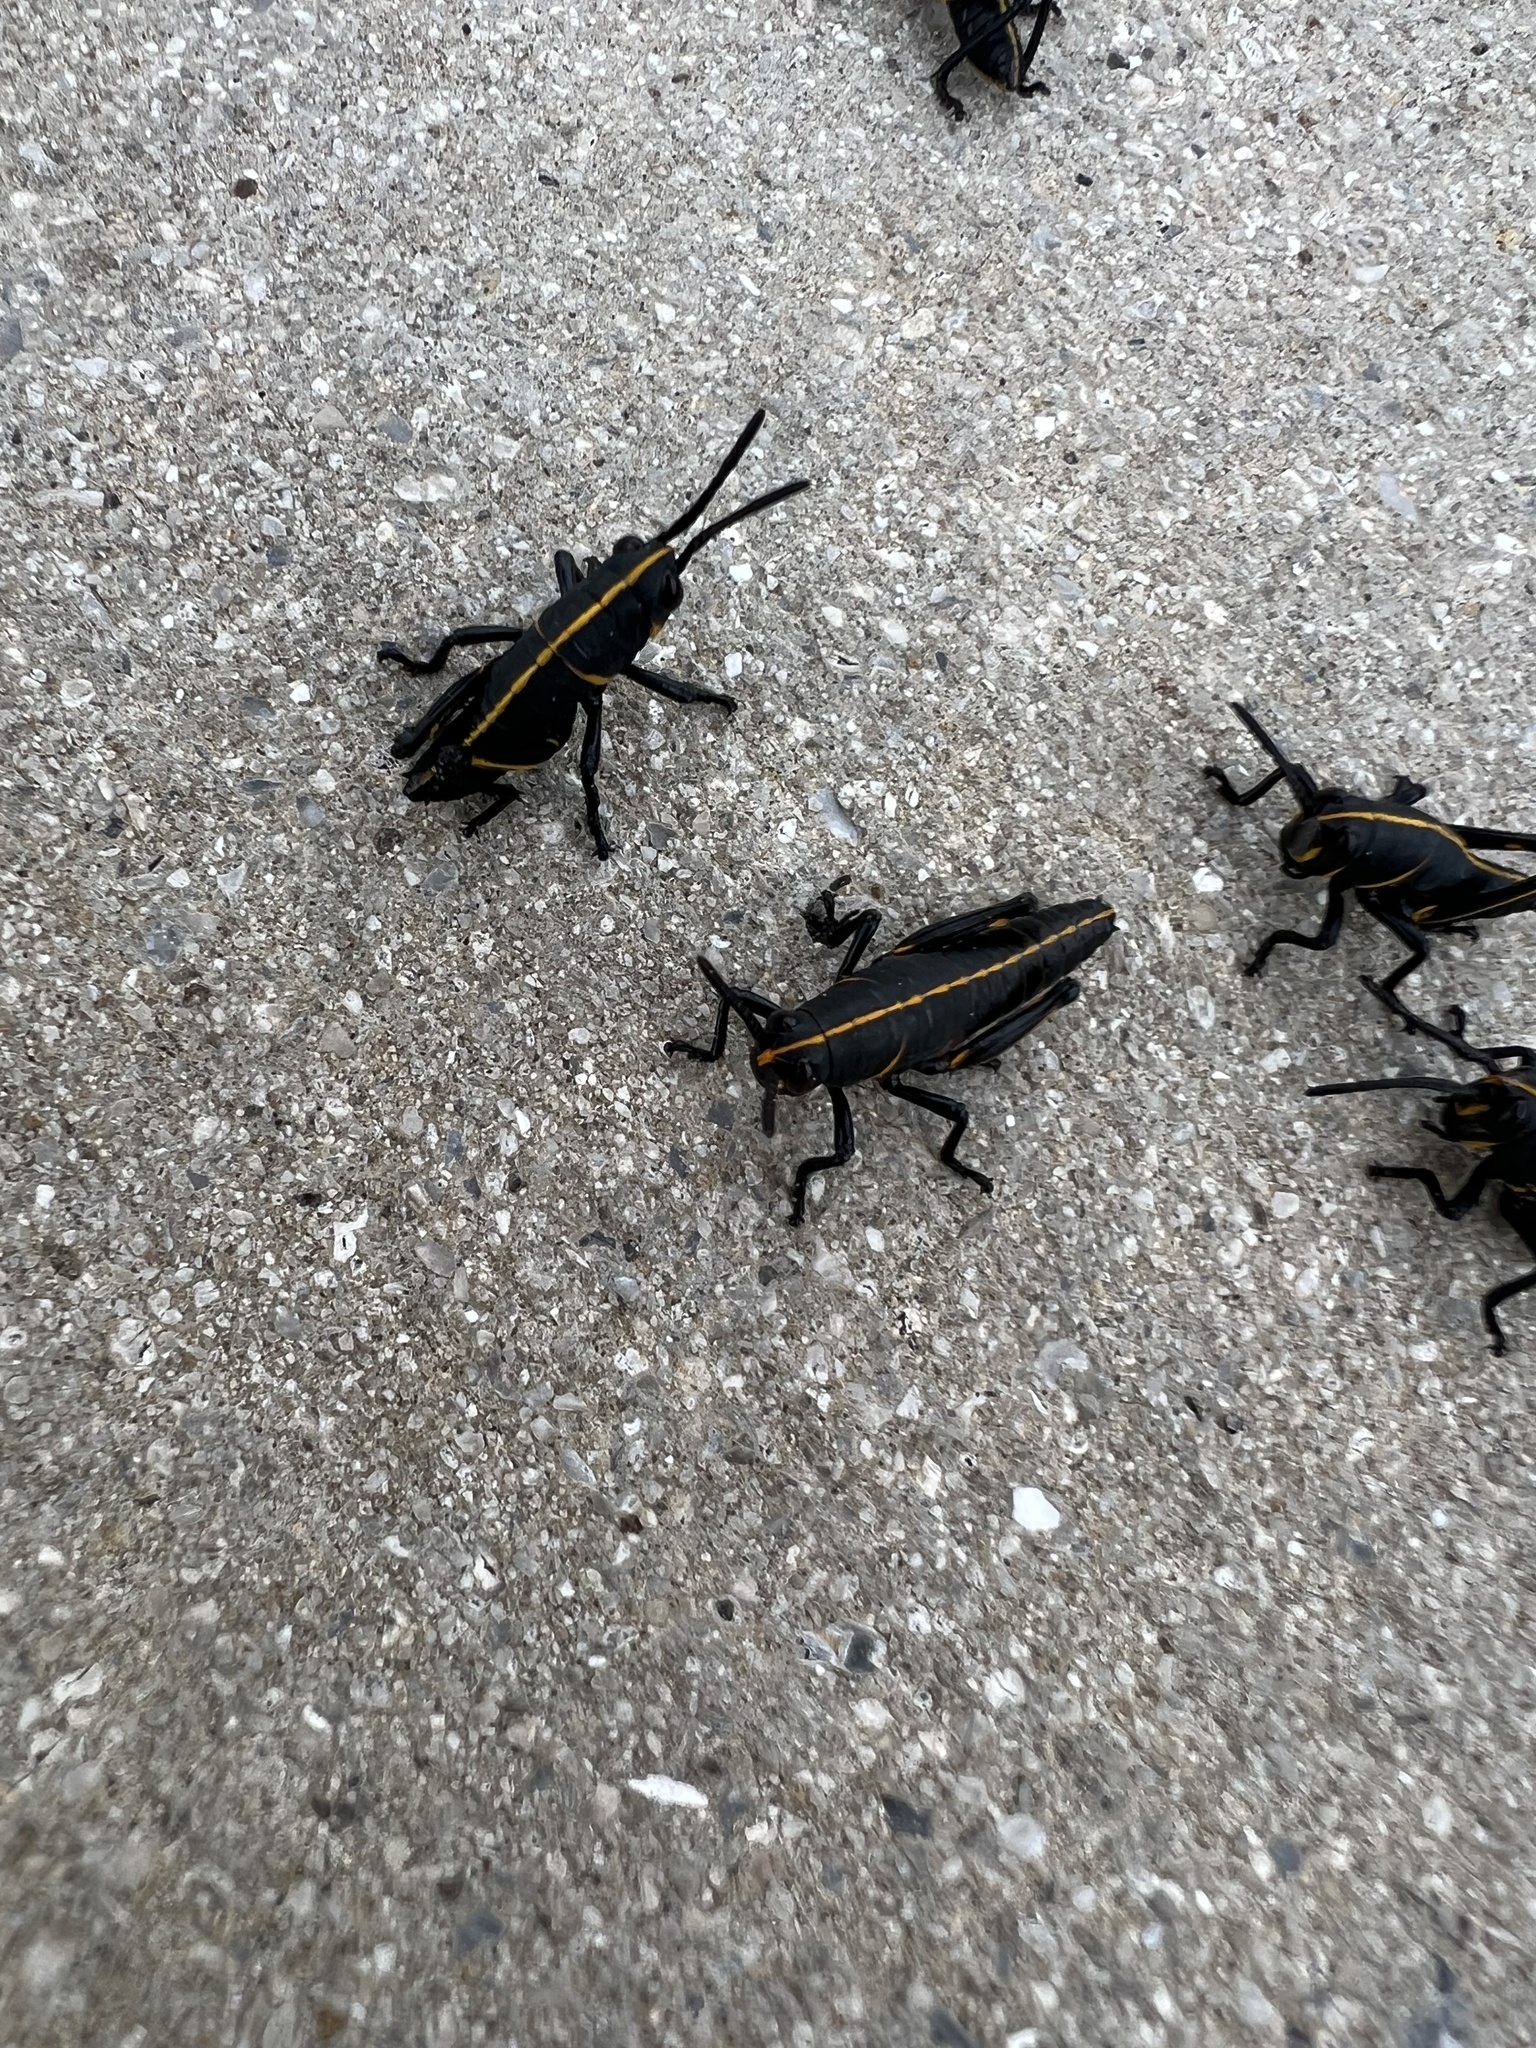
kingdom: Animalia
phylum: Arthropoda
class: Insecta
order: Orthoptera
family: Romaleidae
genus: Romalea
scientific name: Romalea microptera
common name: Eastern lubber grasshopper
